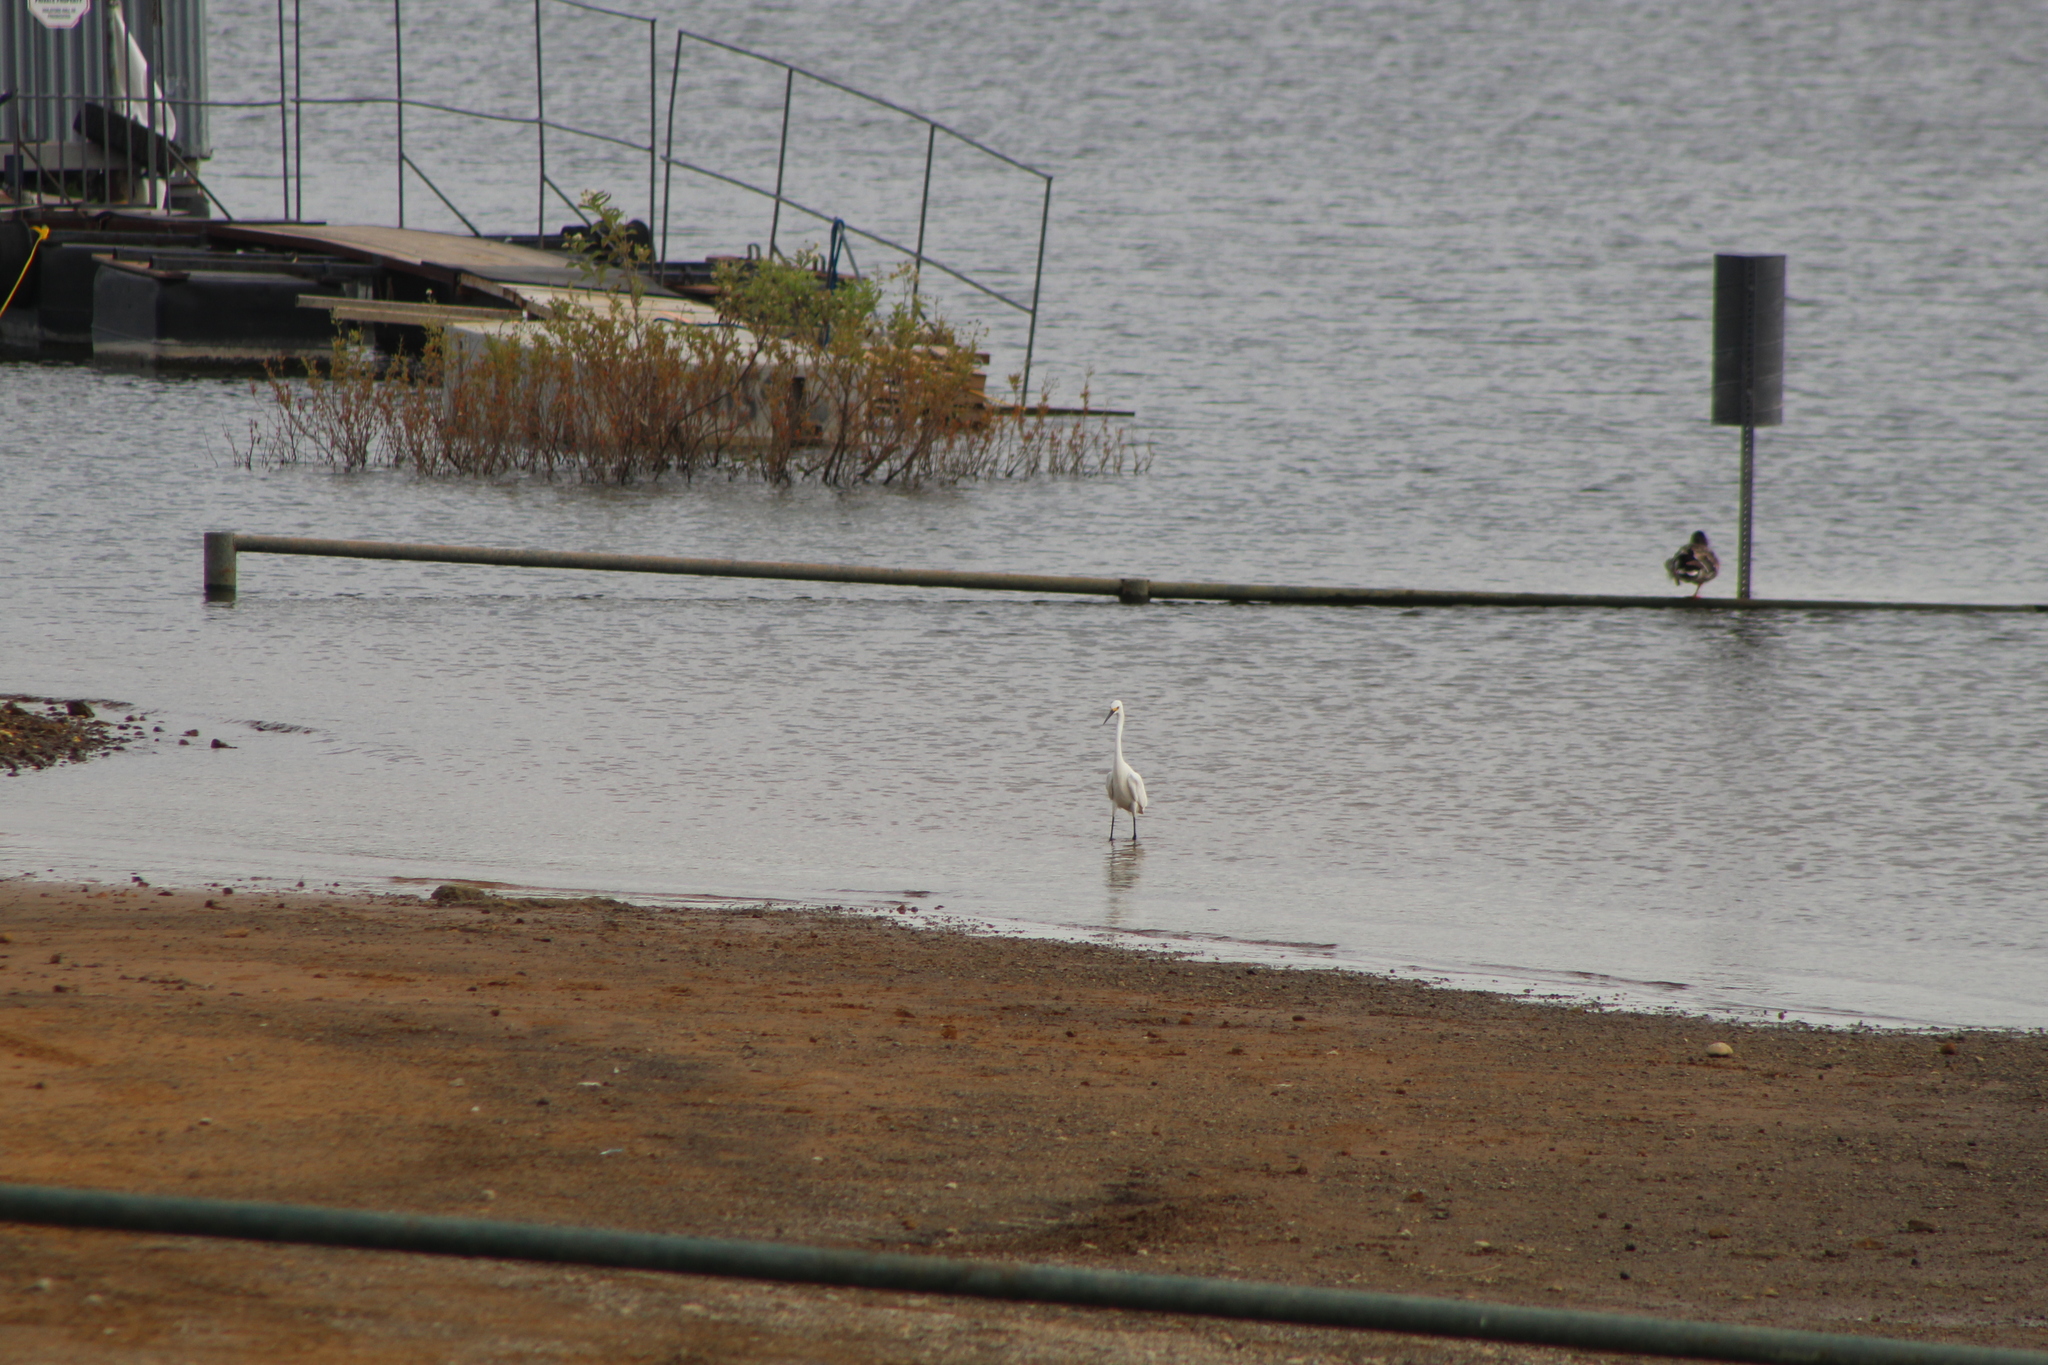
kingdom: Animalia
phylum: Chordata
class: Aves
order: Pelecaniformes
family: Ardeidae
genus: Egretta
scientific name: Egretta thula
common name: Snowy egret
